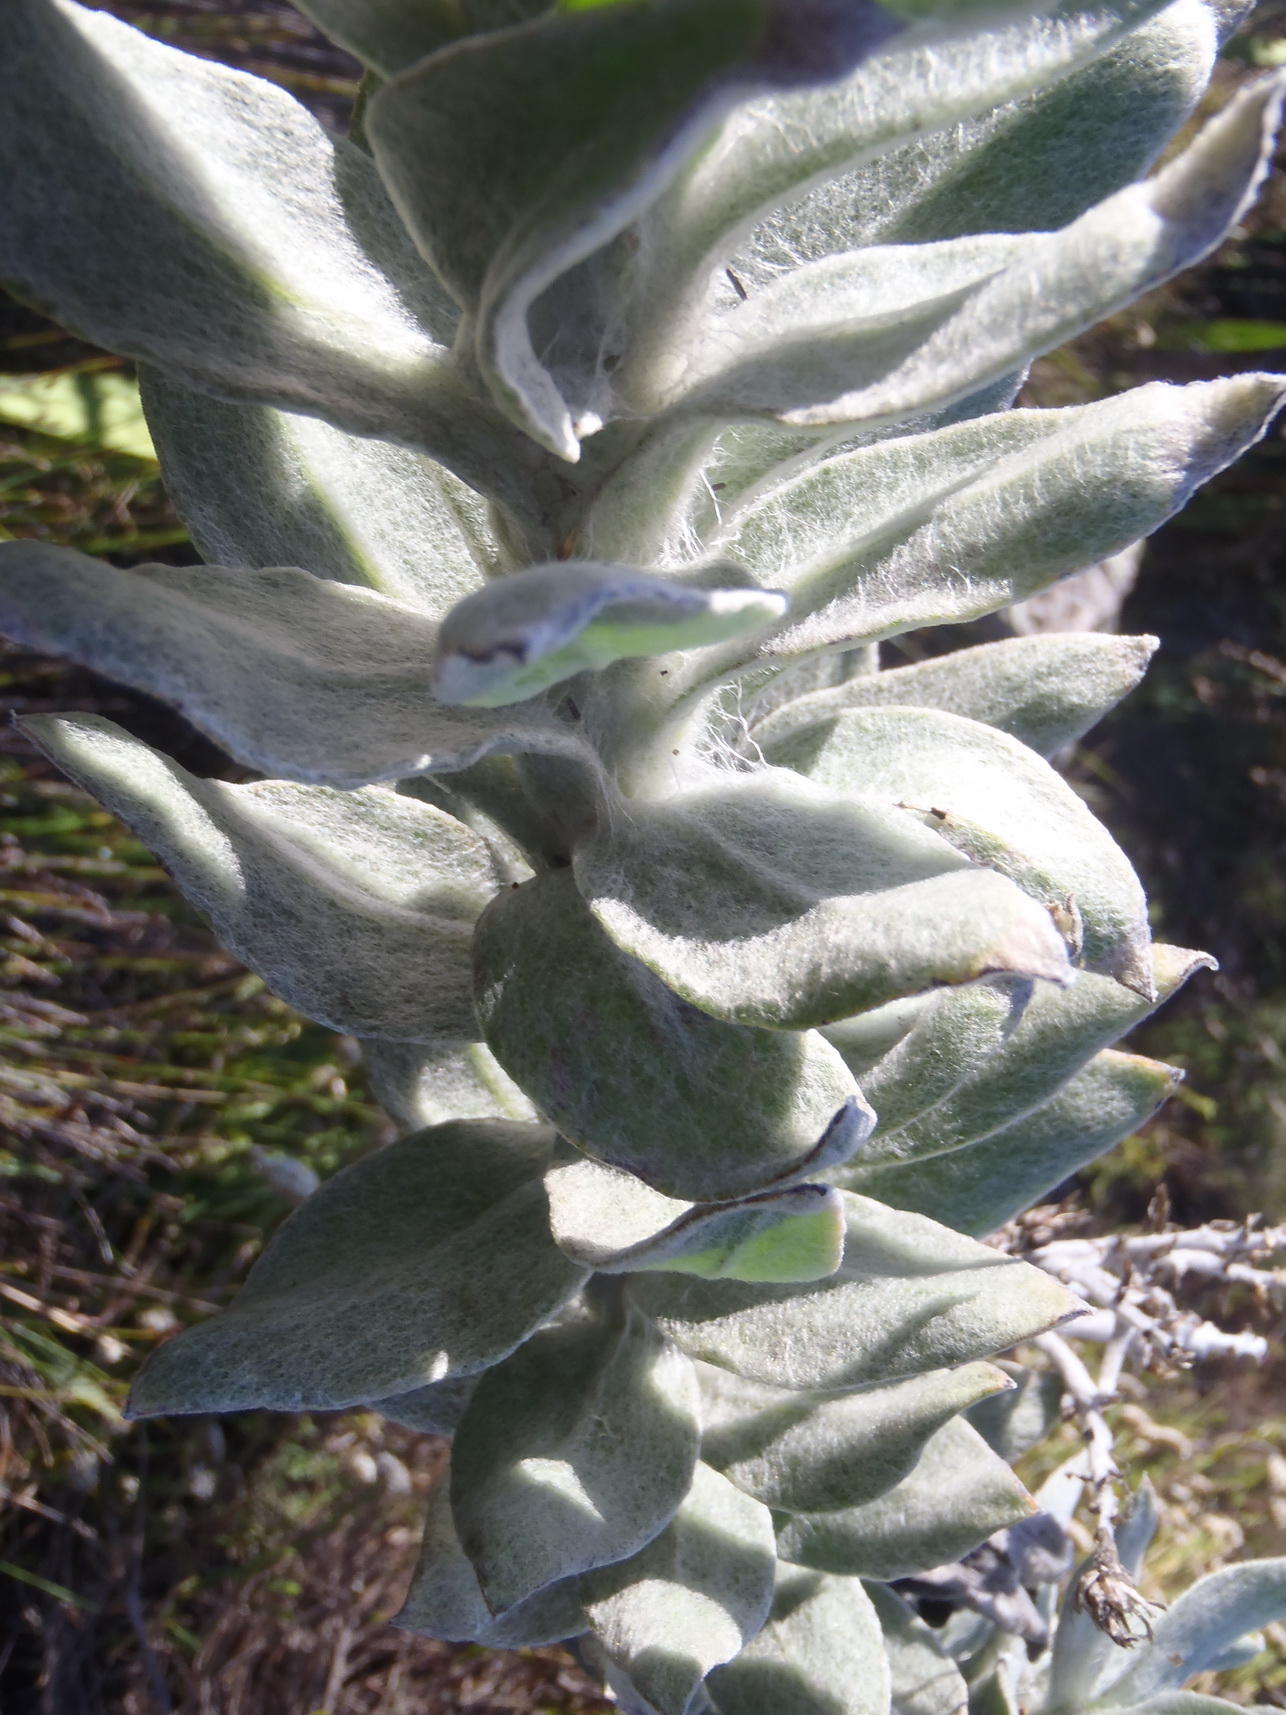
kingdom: Plantae
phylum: Tracheophyta
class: Magnoliopsida
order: Asterales
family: Asteraceae
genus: Syncarpha
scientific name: Syncarpha milleflora
